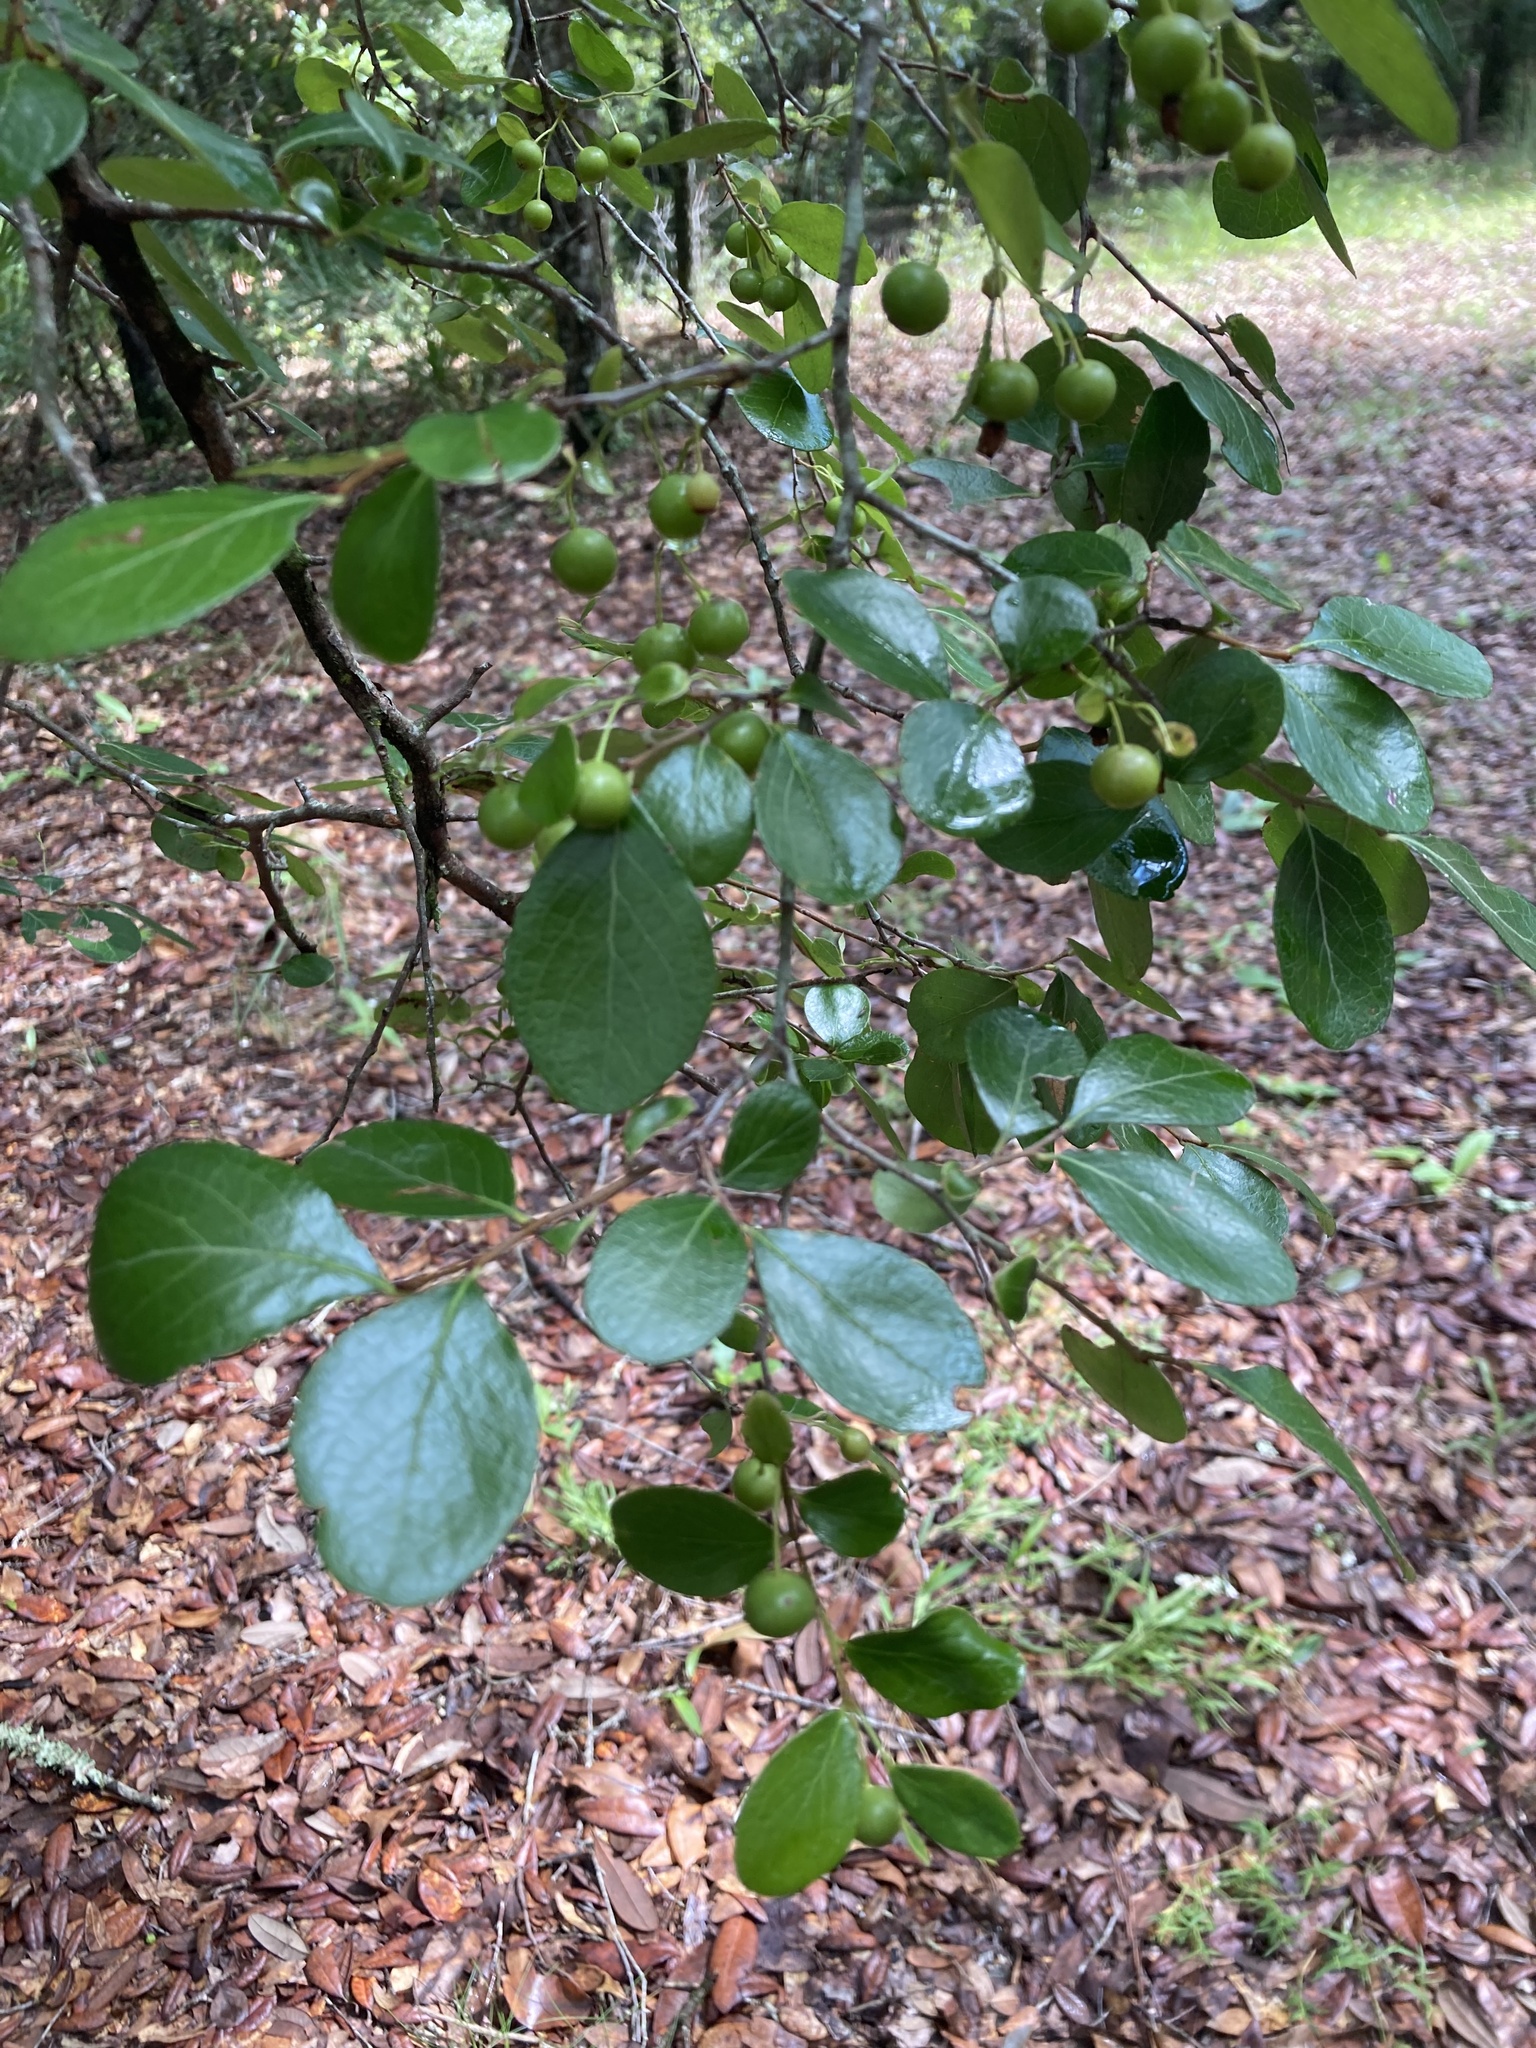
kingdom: Plantae
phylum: Tracheophyta
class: Magnoliopsida
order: Ericales
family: Ericaceae
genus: Vaccinium
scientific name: Vaccinium arboreum
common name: Farkleberry
